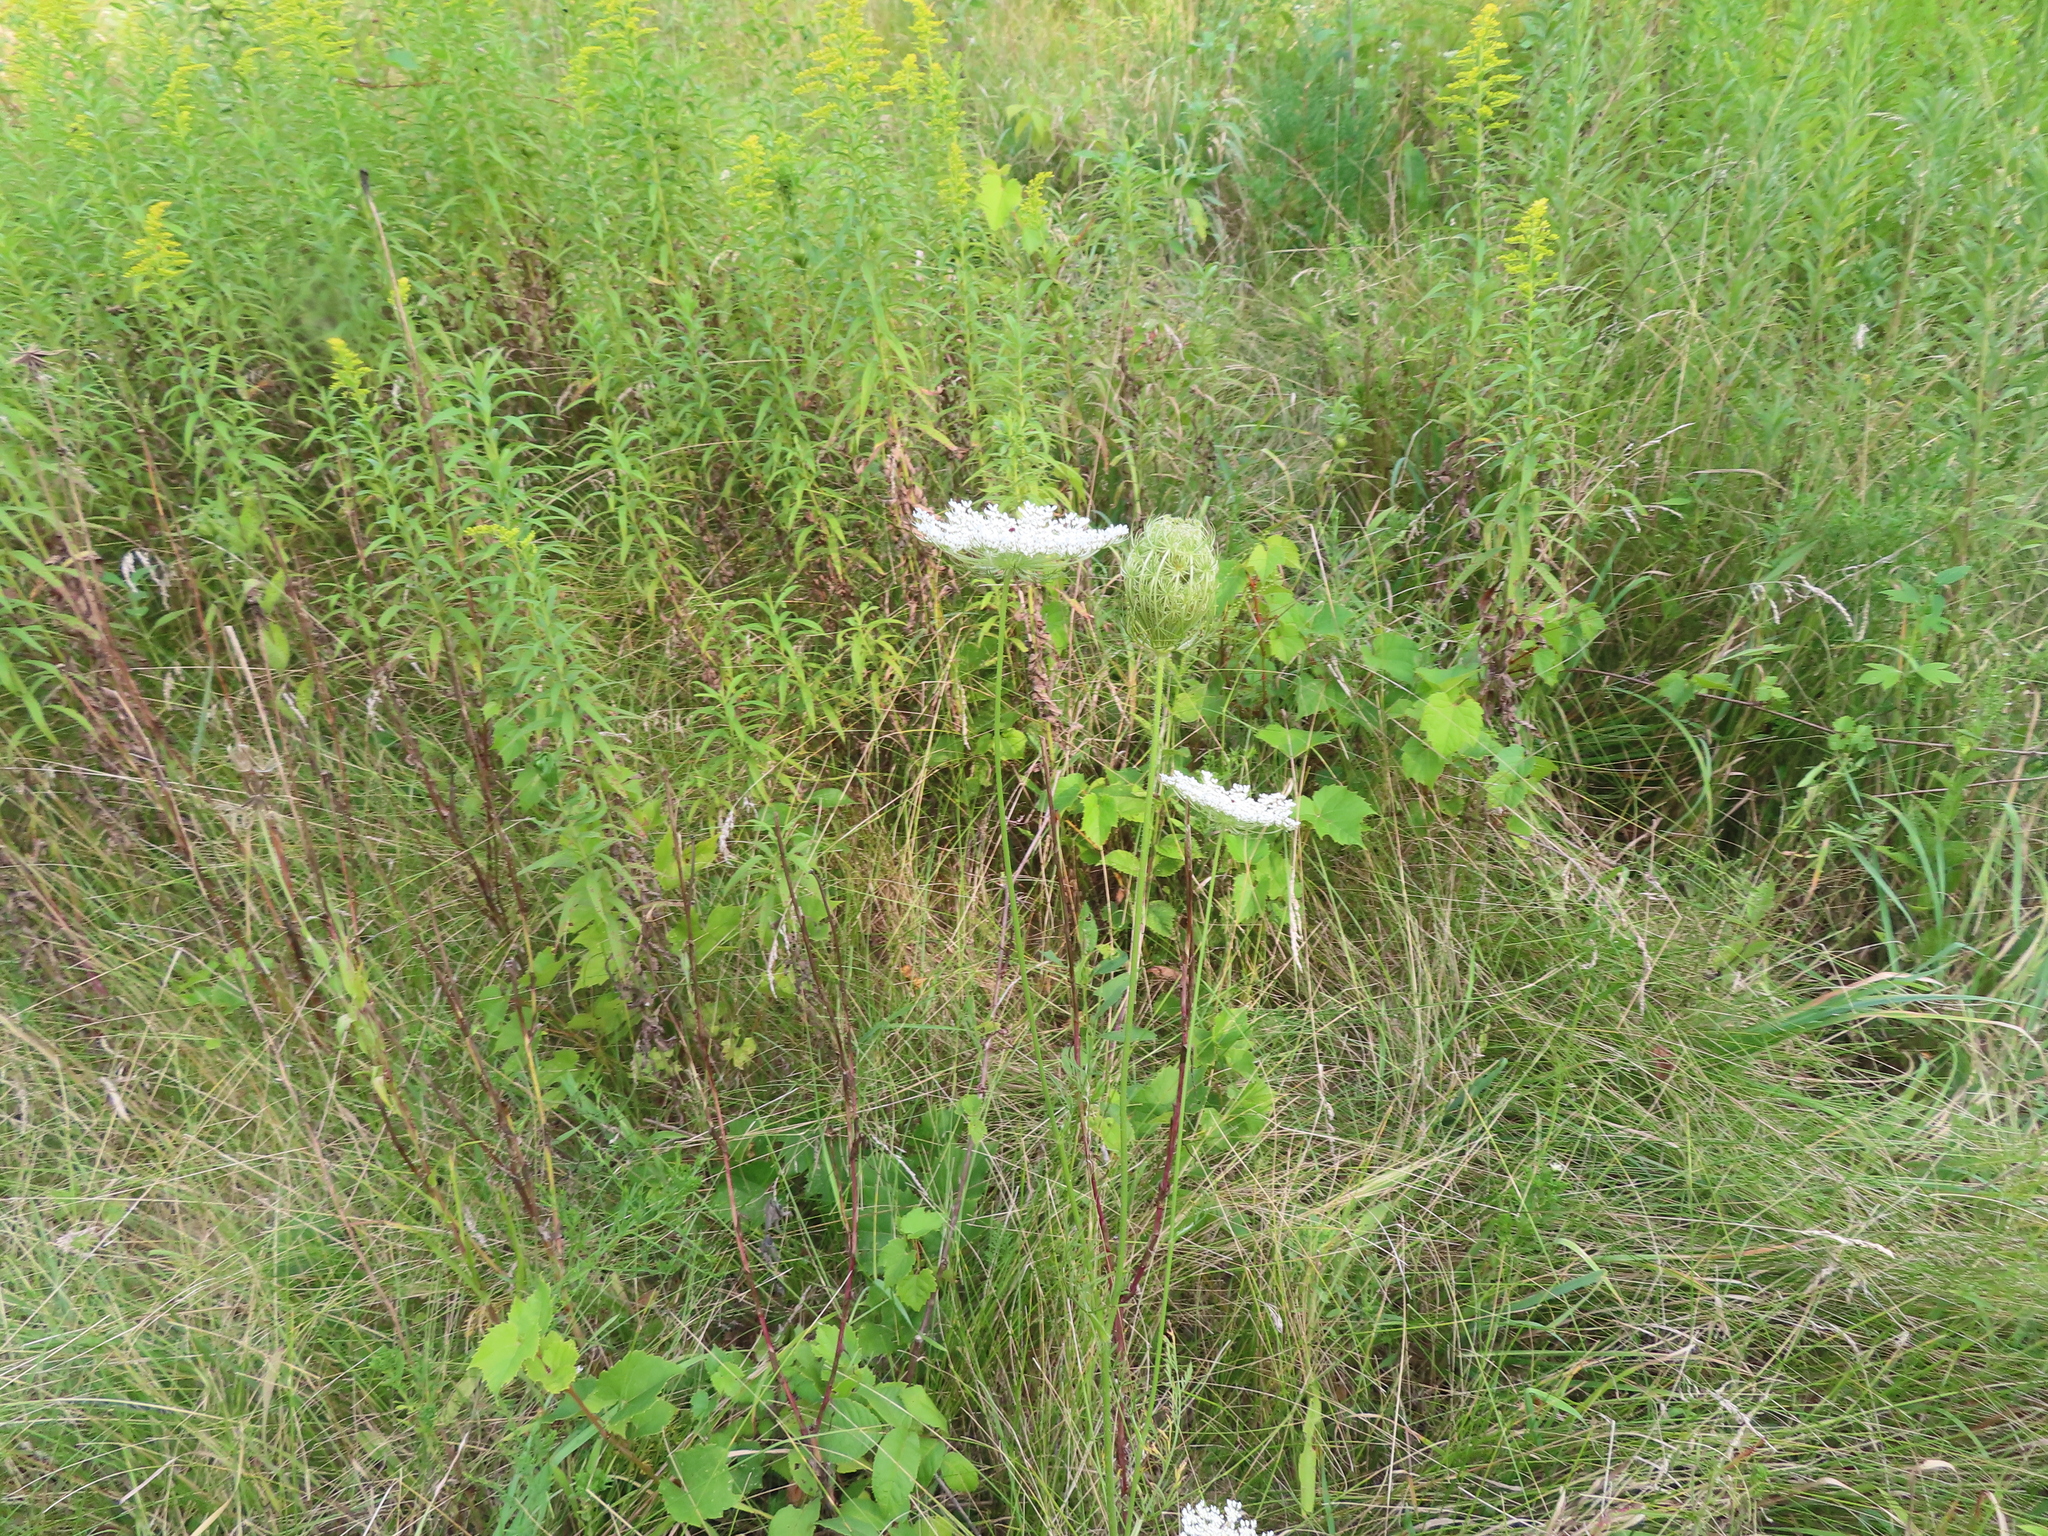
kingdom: Plantae
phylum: Tracheophyta
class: Magnoliopsida
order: Apiales
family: Apiaceae
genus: Daucus
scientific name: Daucus carota
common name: Wild carrot
